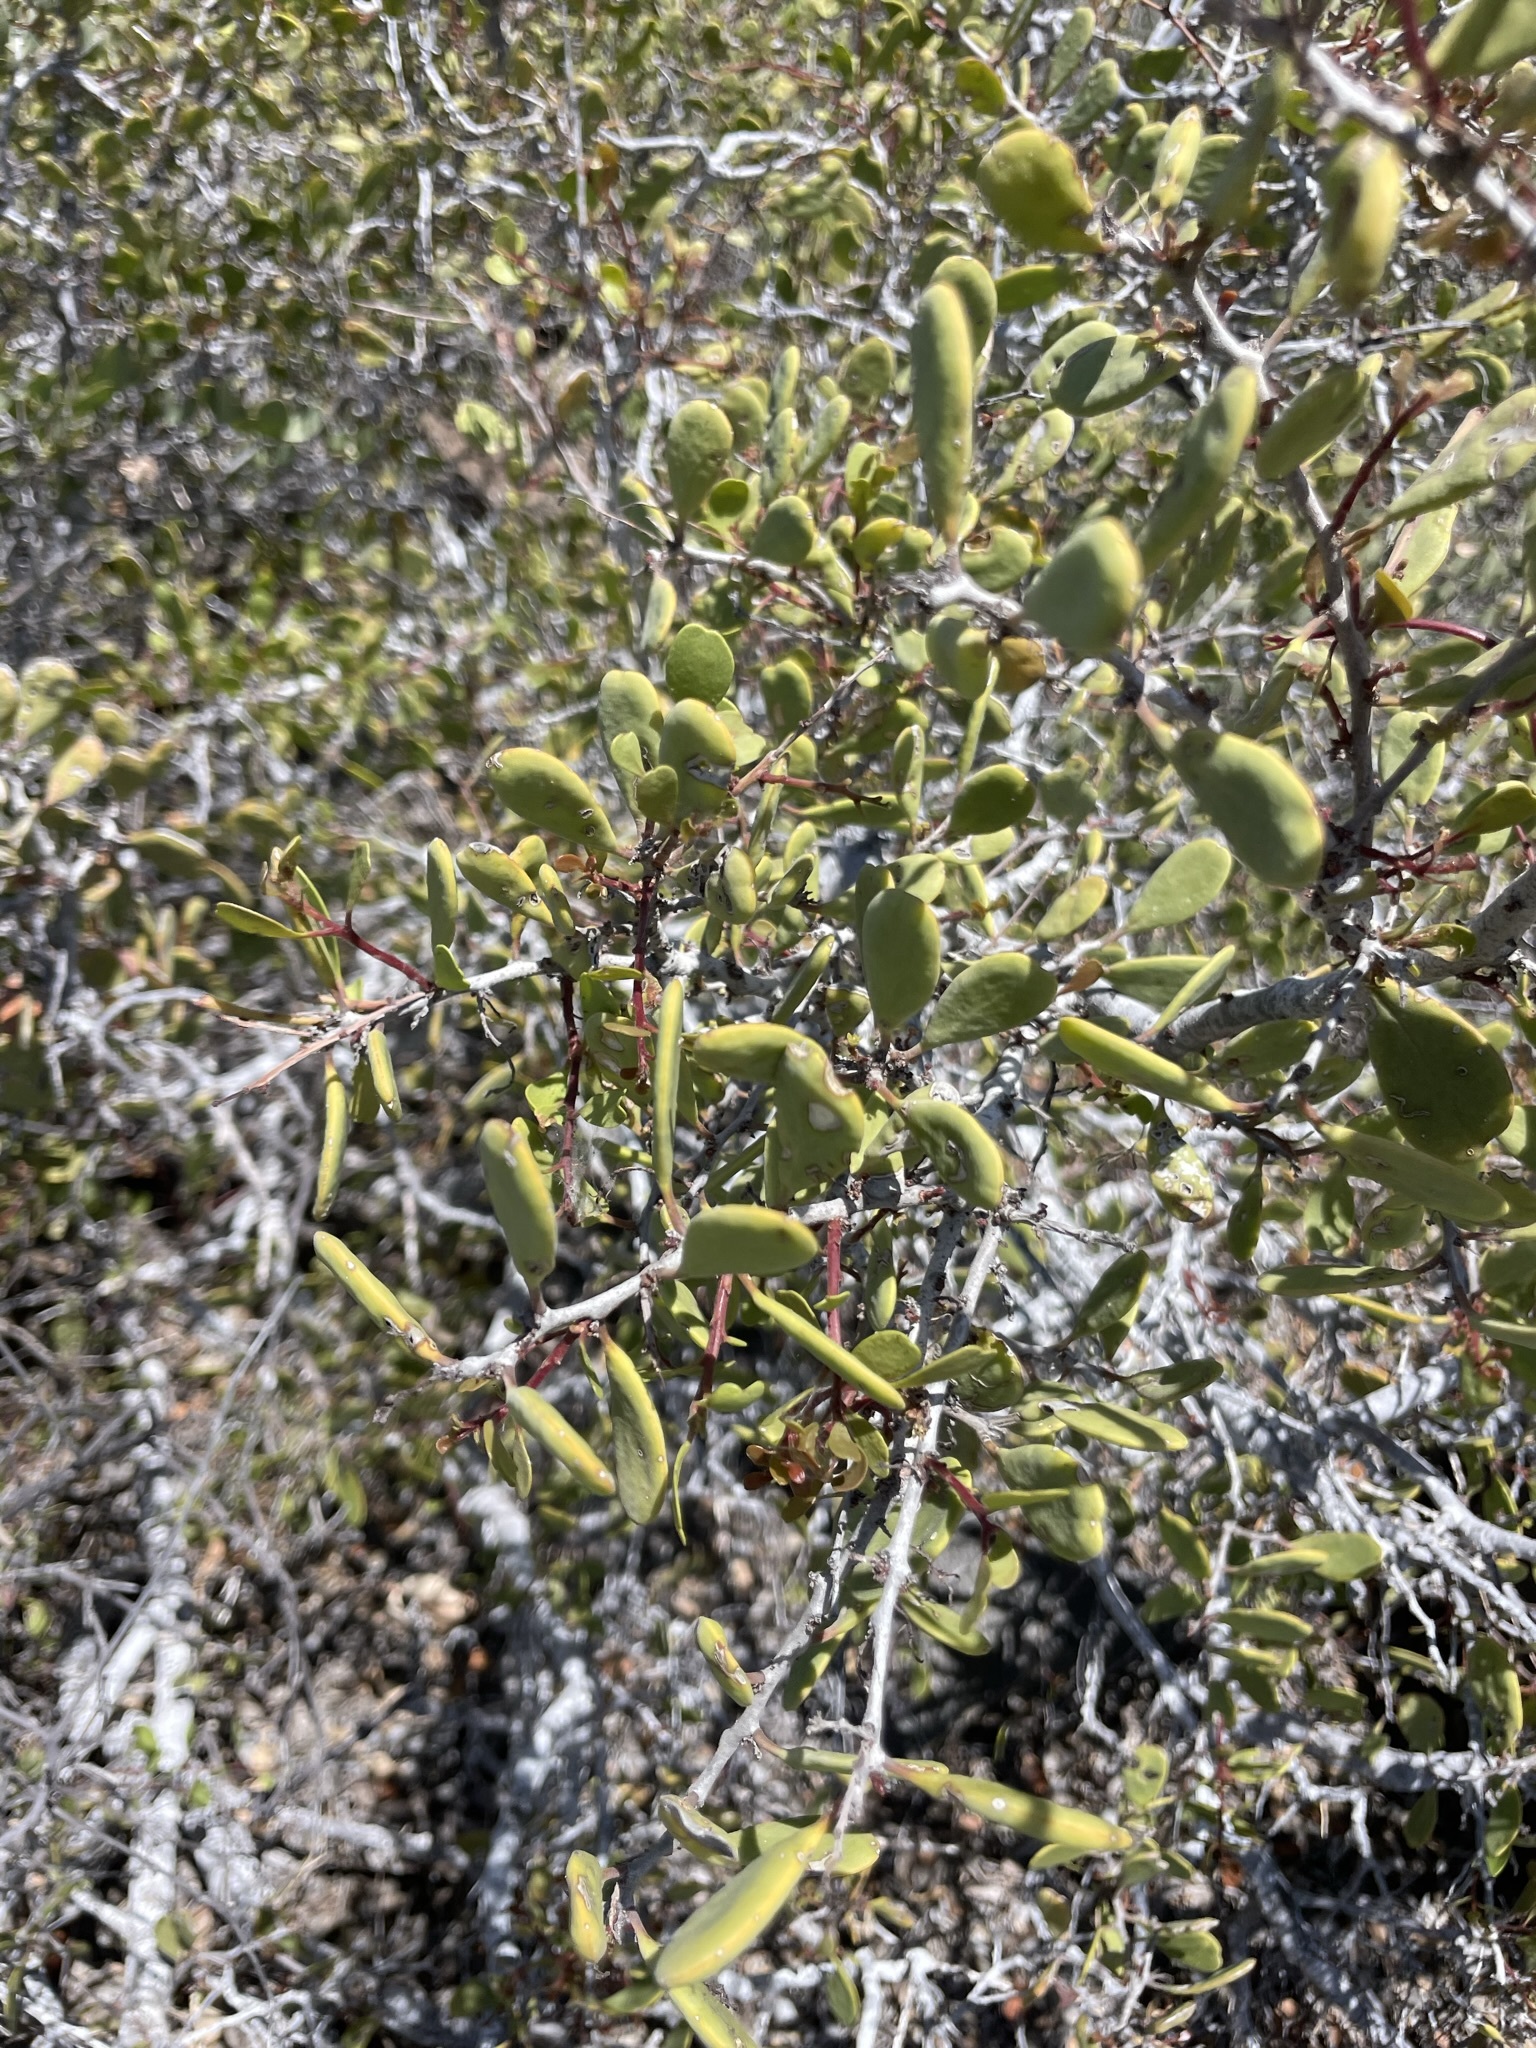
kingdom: Plantae
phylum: Tracheophyta
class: Magnoliopsida
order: Celastrales
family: Celastraceae
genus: Tricerma
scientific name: Tricerma phyllanthoides
